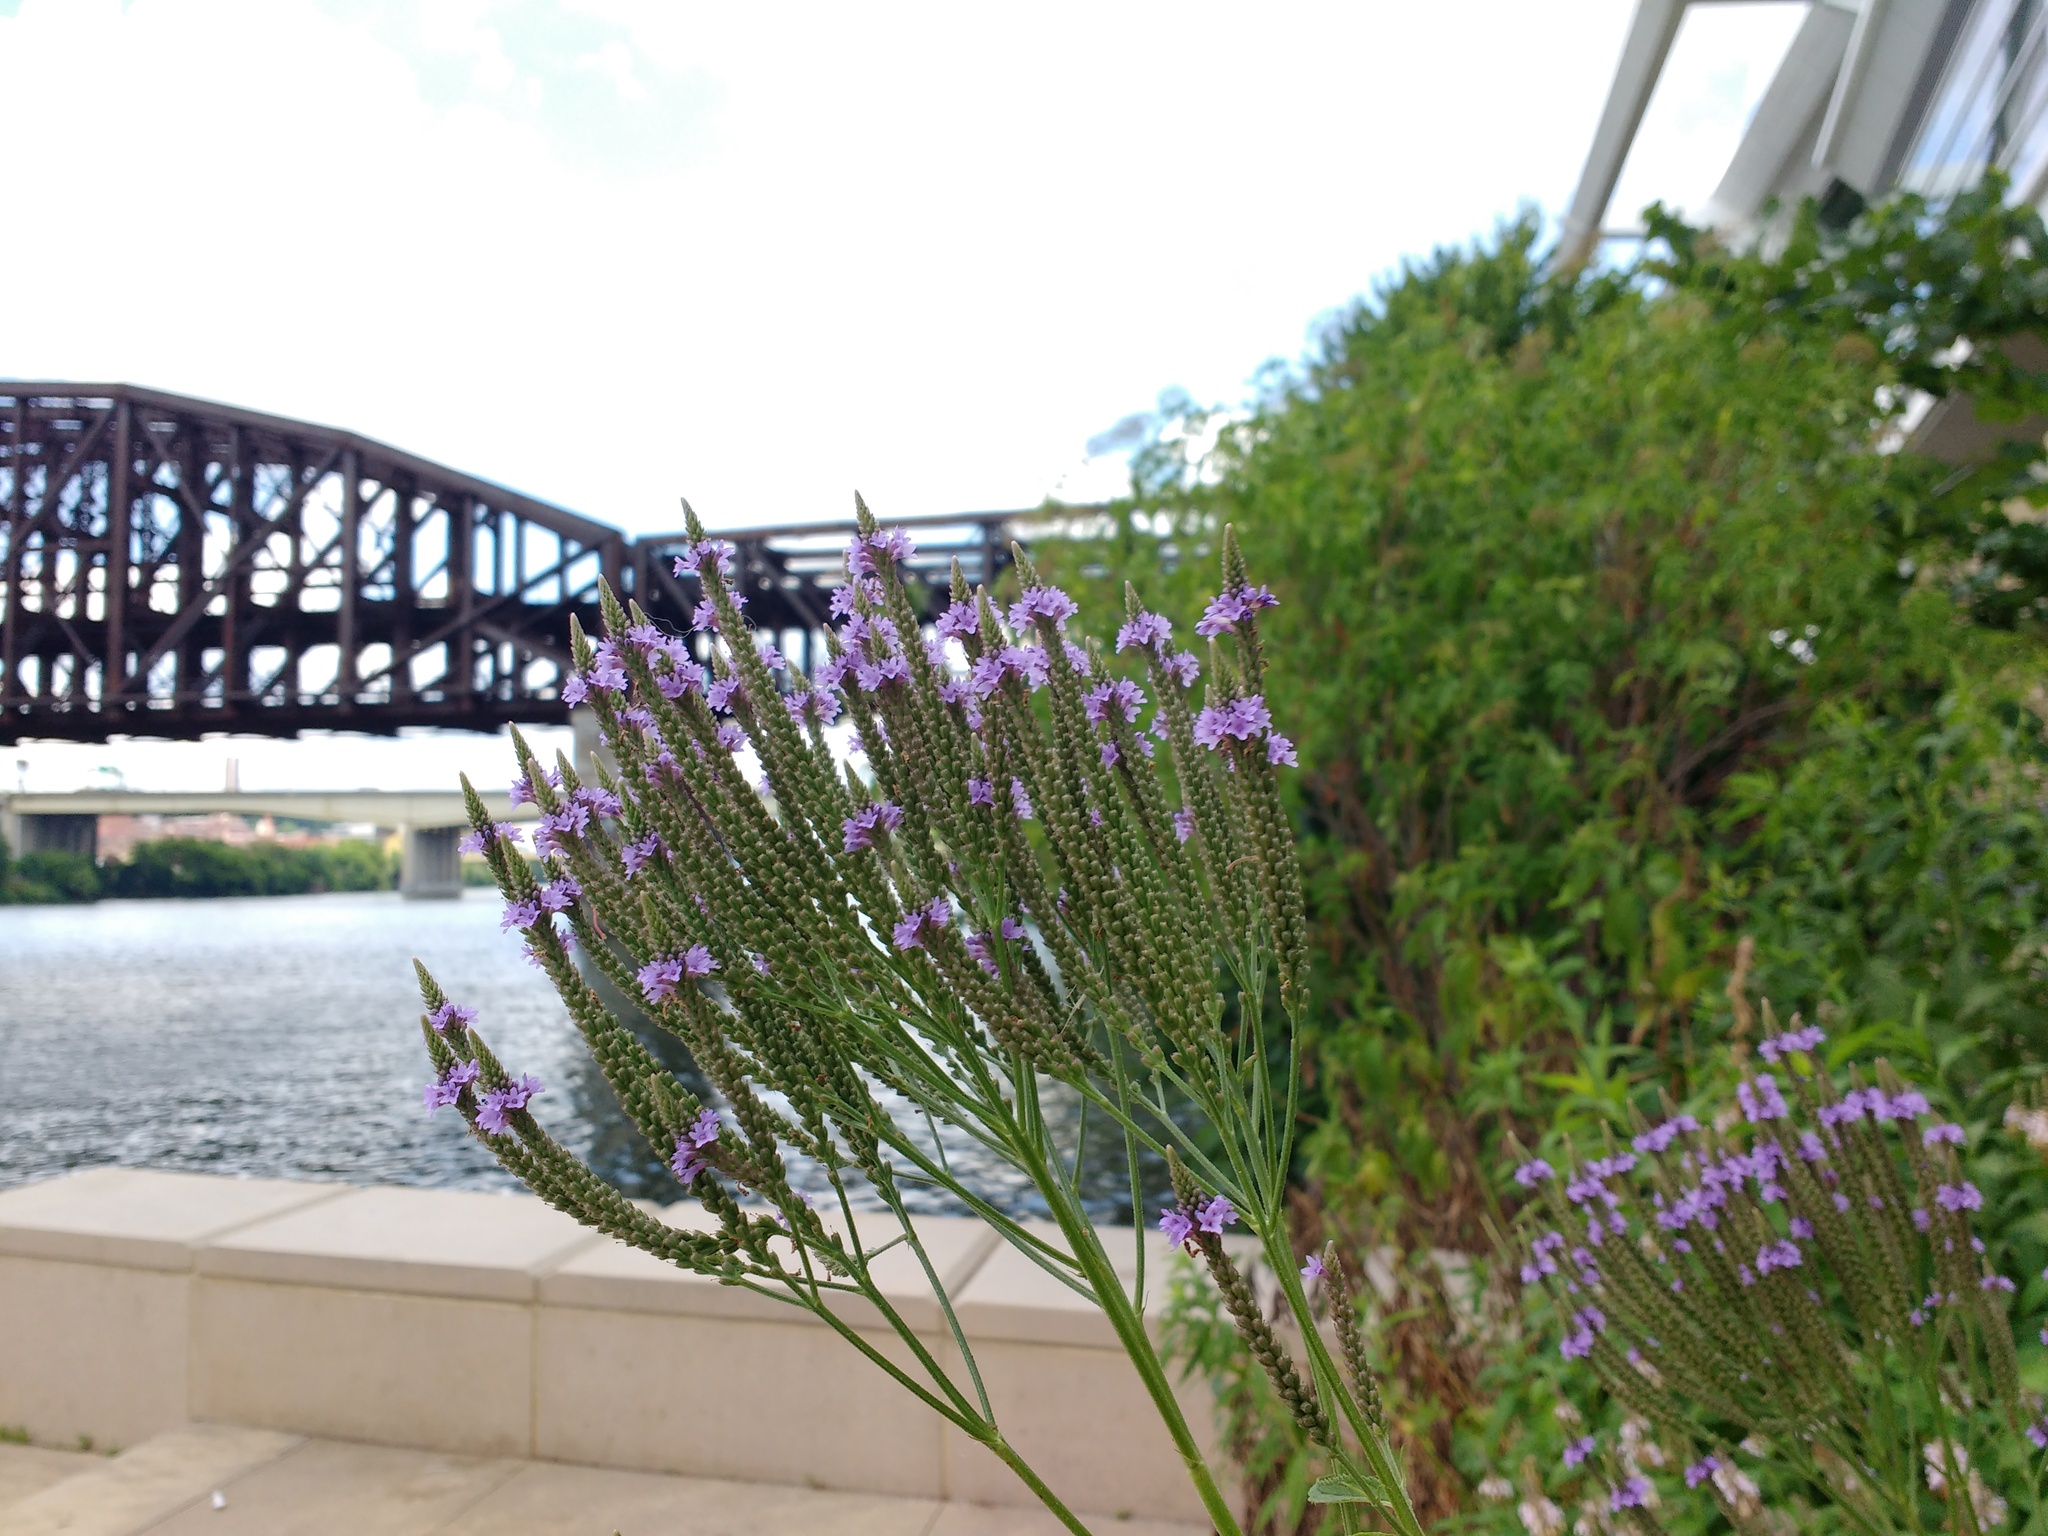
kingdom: Plantae
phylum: Tracheophyta
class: Magnoliopsida
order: Lamiales
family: Verbenaceae
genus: Verbena
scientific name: Verbena hastata
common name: American blue vervain
